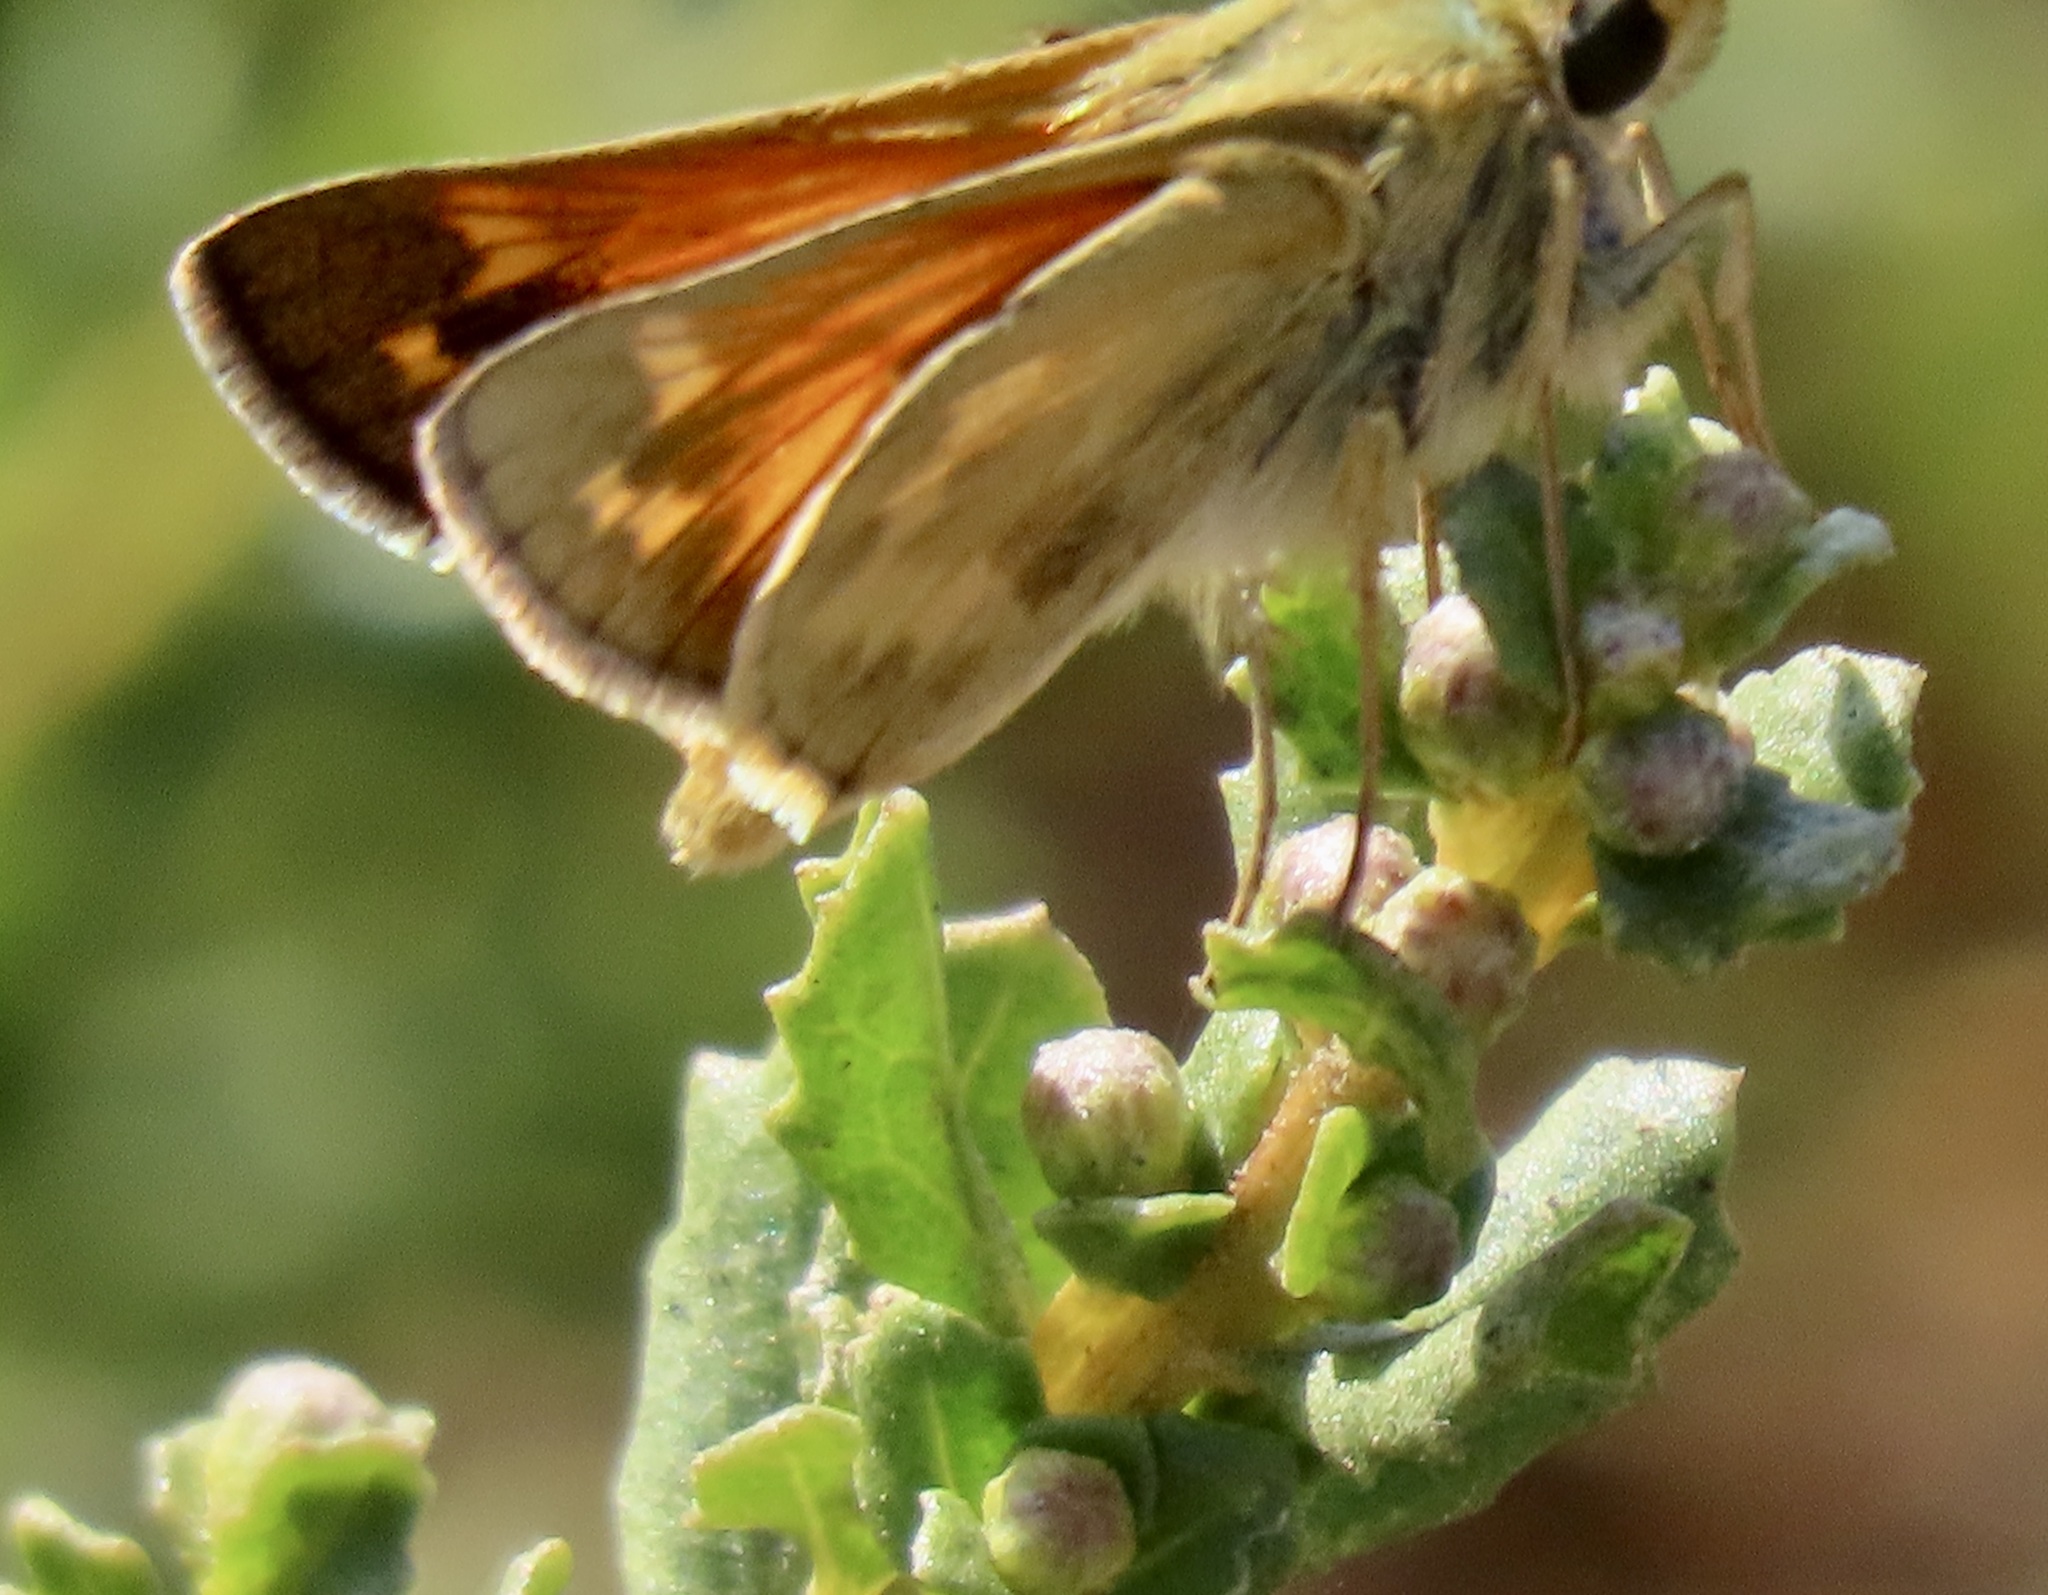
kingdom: Animalia
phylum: Arthropoda
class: Insecta
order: Lepidoptera
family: Hesperiidae
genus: Atalopedes
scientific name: Atalopedes campestris
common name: Sachem
